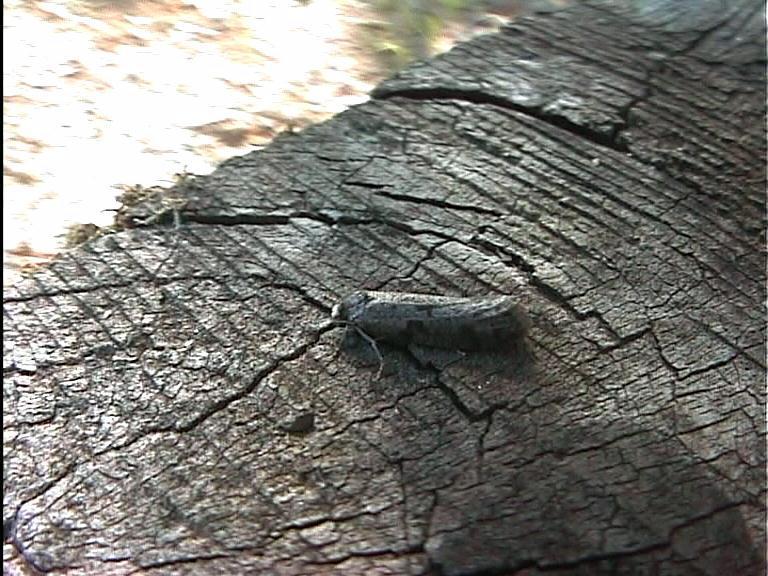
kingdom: Animalia
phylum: Arthropoda
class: Insecta
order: Lepidoptera
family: Psychidae
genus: Lepidoscia
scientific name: Lepidoscia protorna
